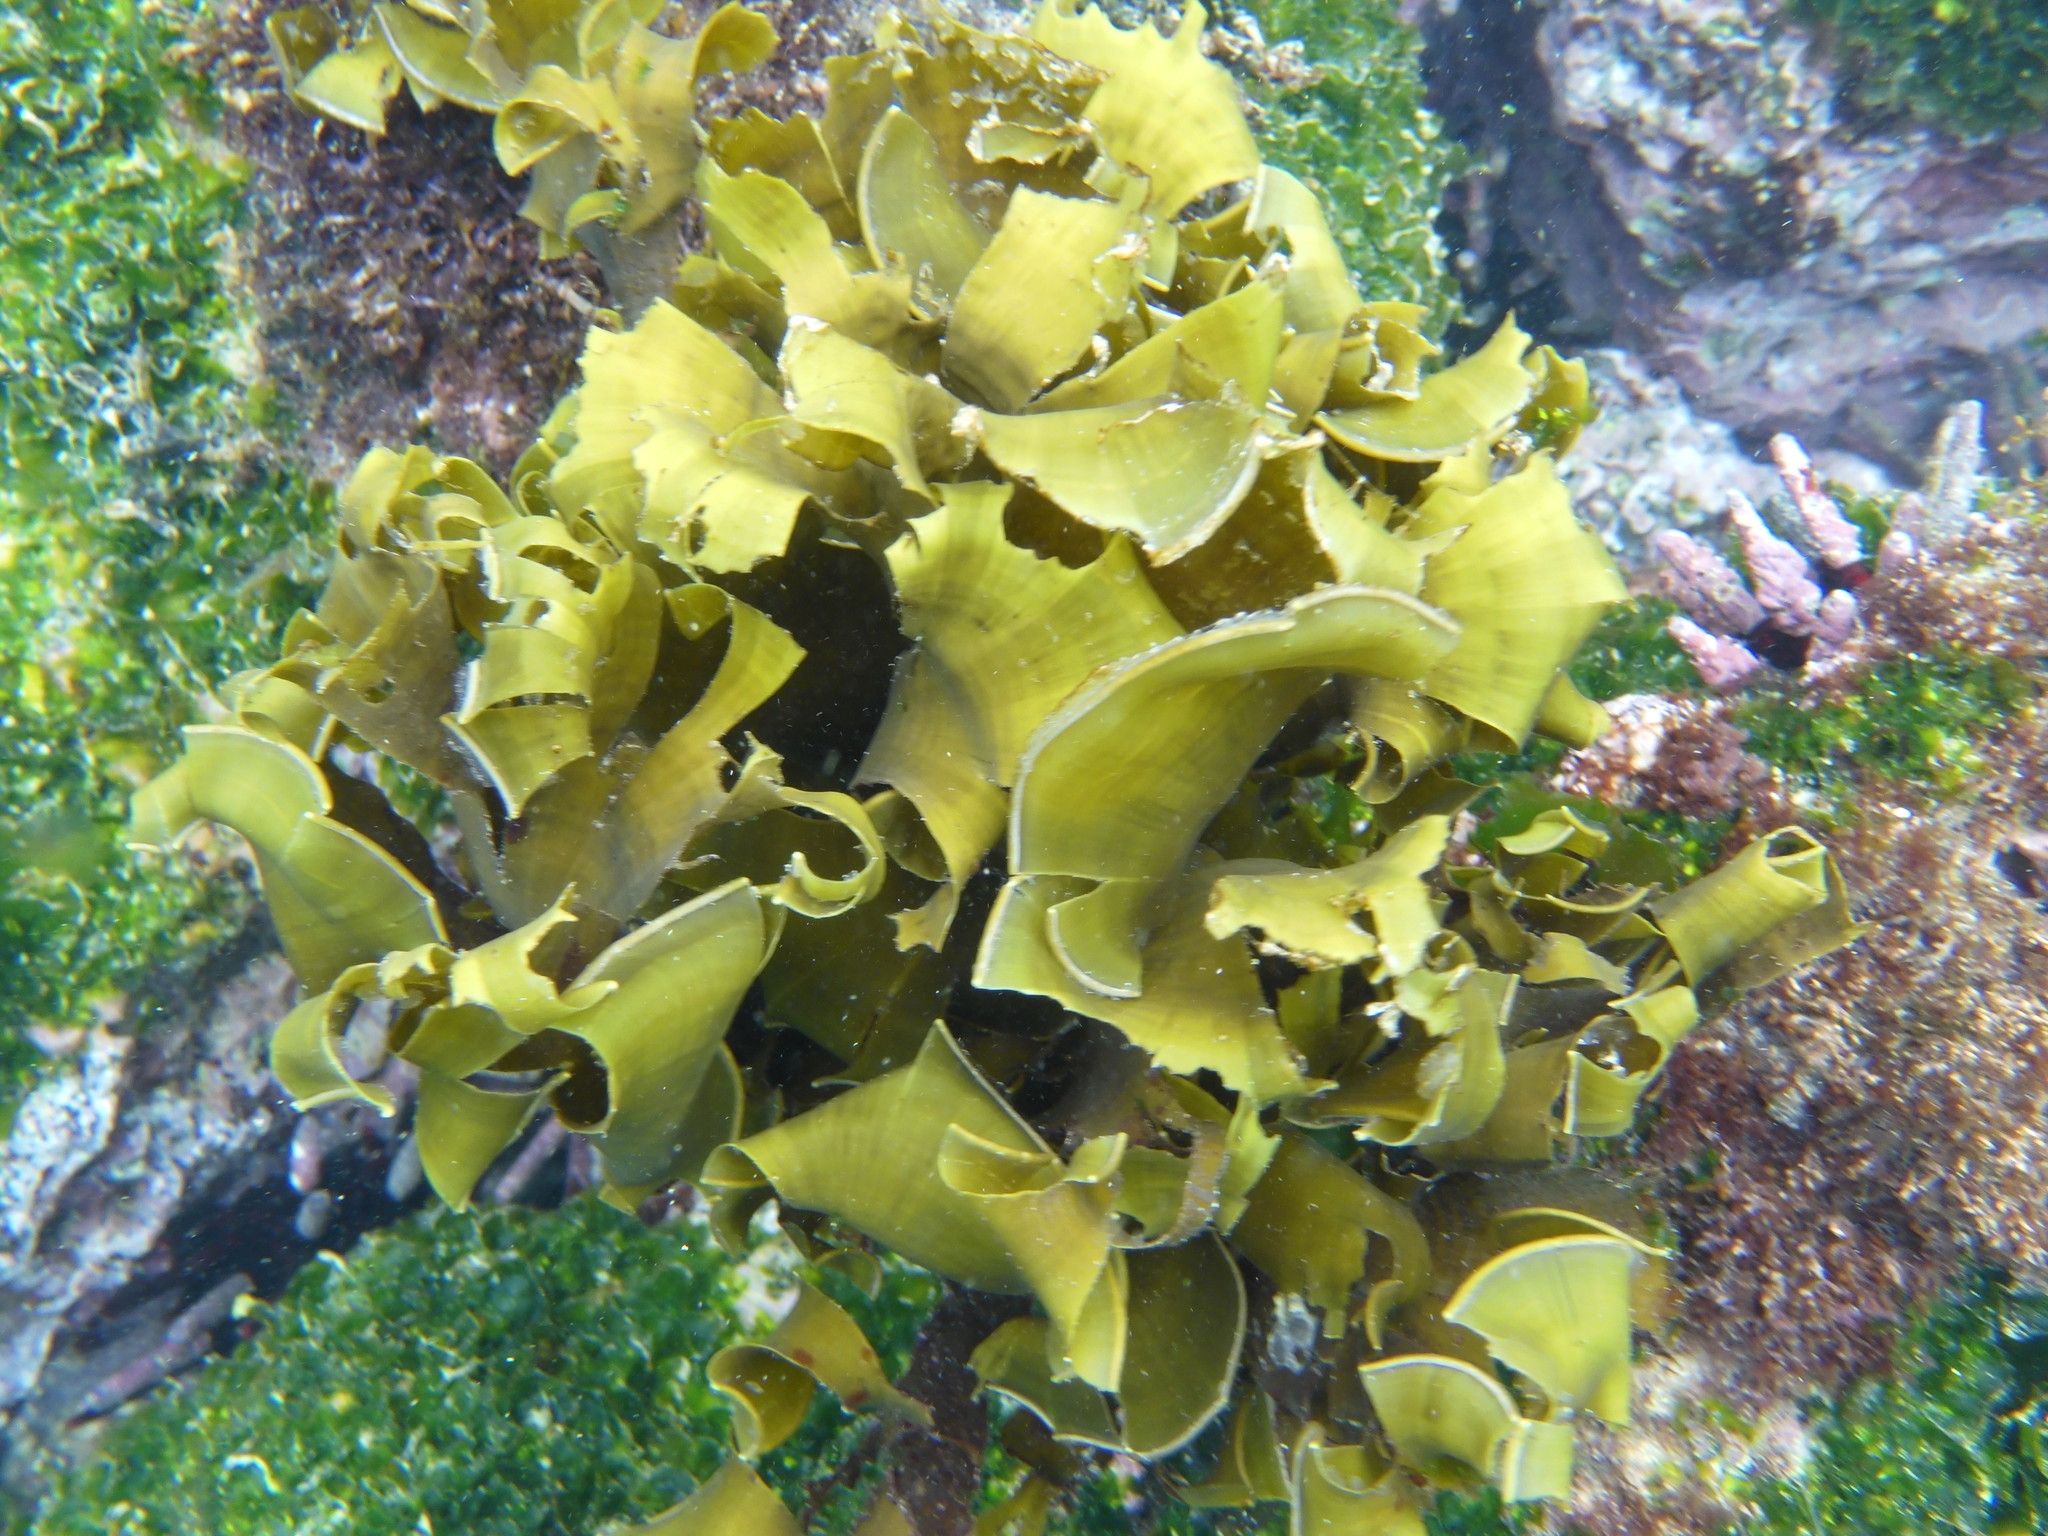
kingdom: Chromista
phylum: Ochrophyta
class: Phaeophyceae
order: Dictyotales
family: Dictyotaceae
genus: Lobophora
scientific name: Lobophora variegata
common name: Encrusting fan-leaf algae
